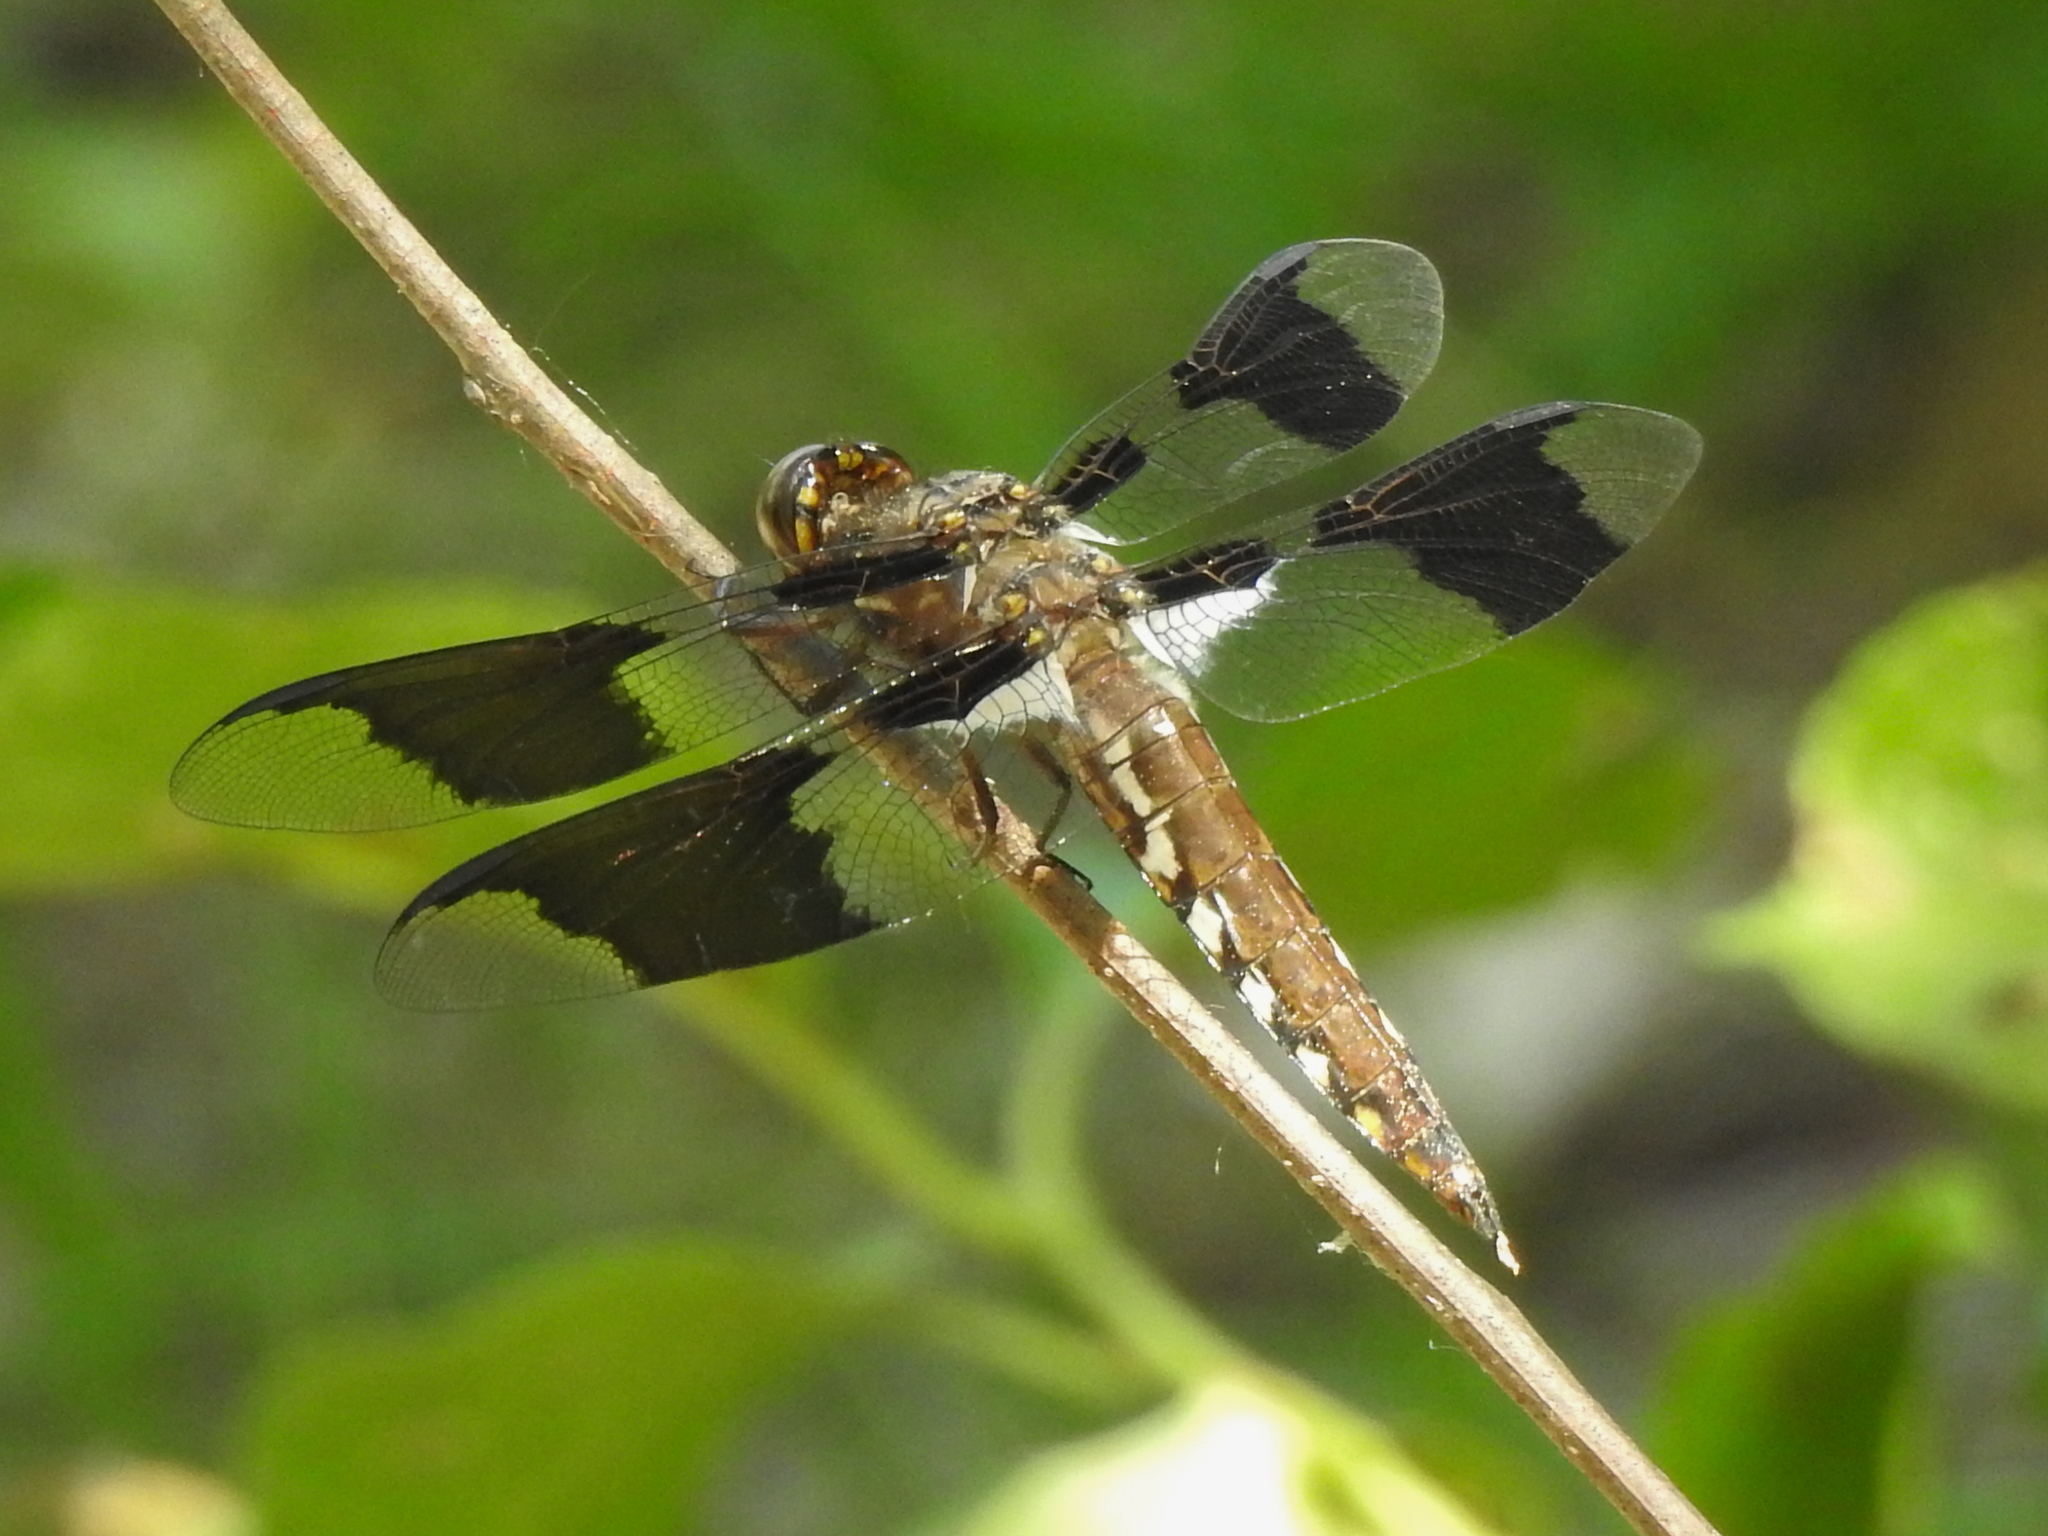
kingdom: Animalia
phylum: Arthropoda
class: Insecta
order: Odonata
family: Libellulidae
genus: Plathemis
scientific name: Plathemis lydia
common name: Common whitetail
